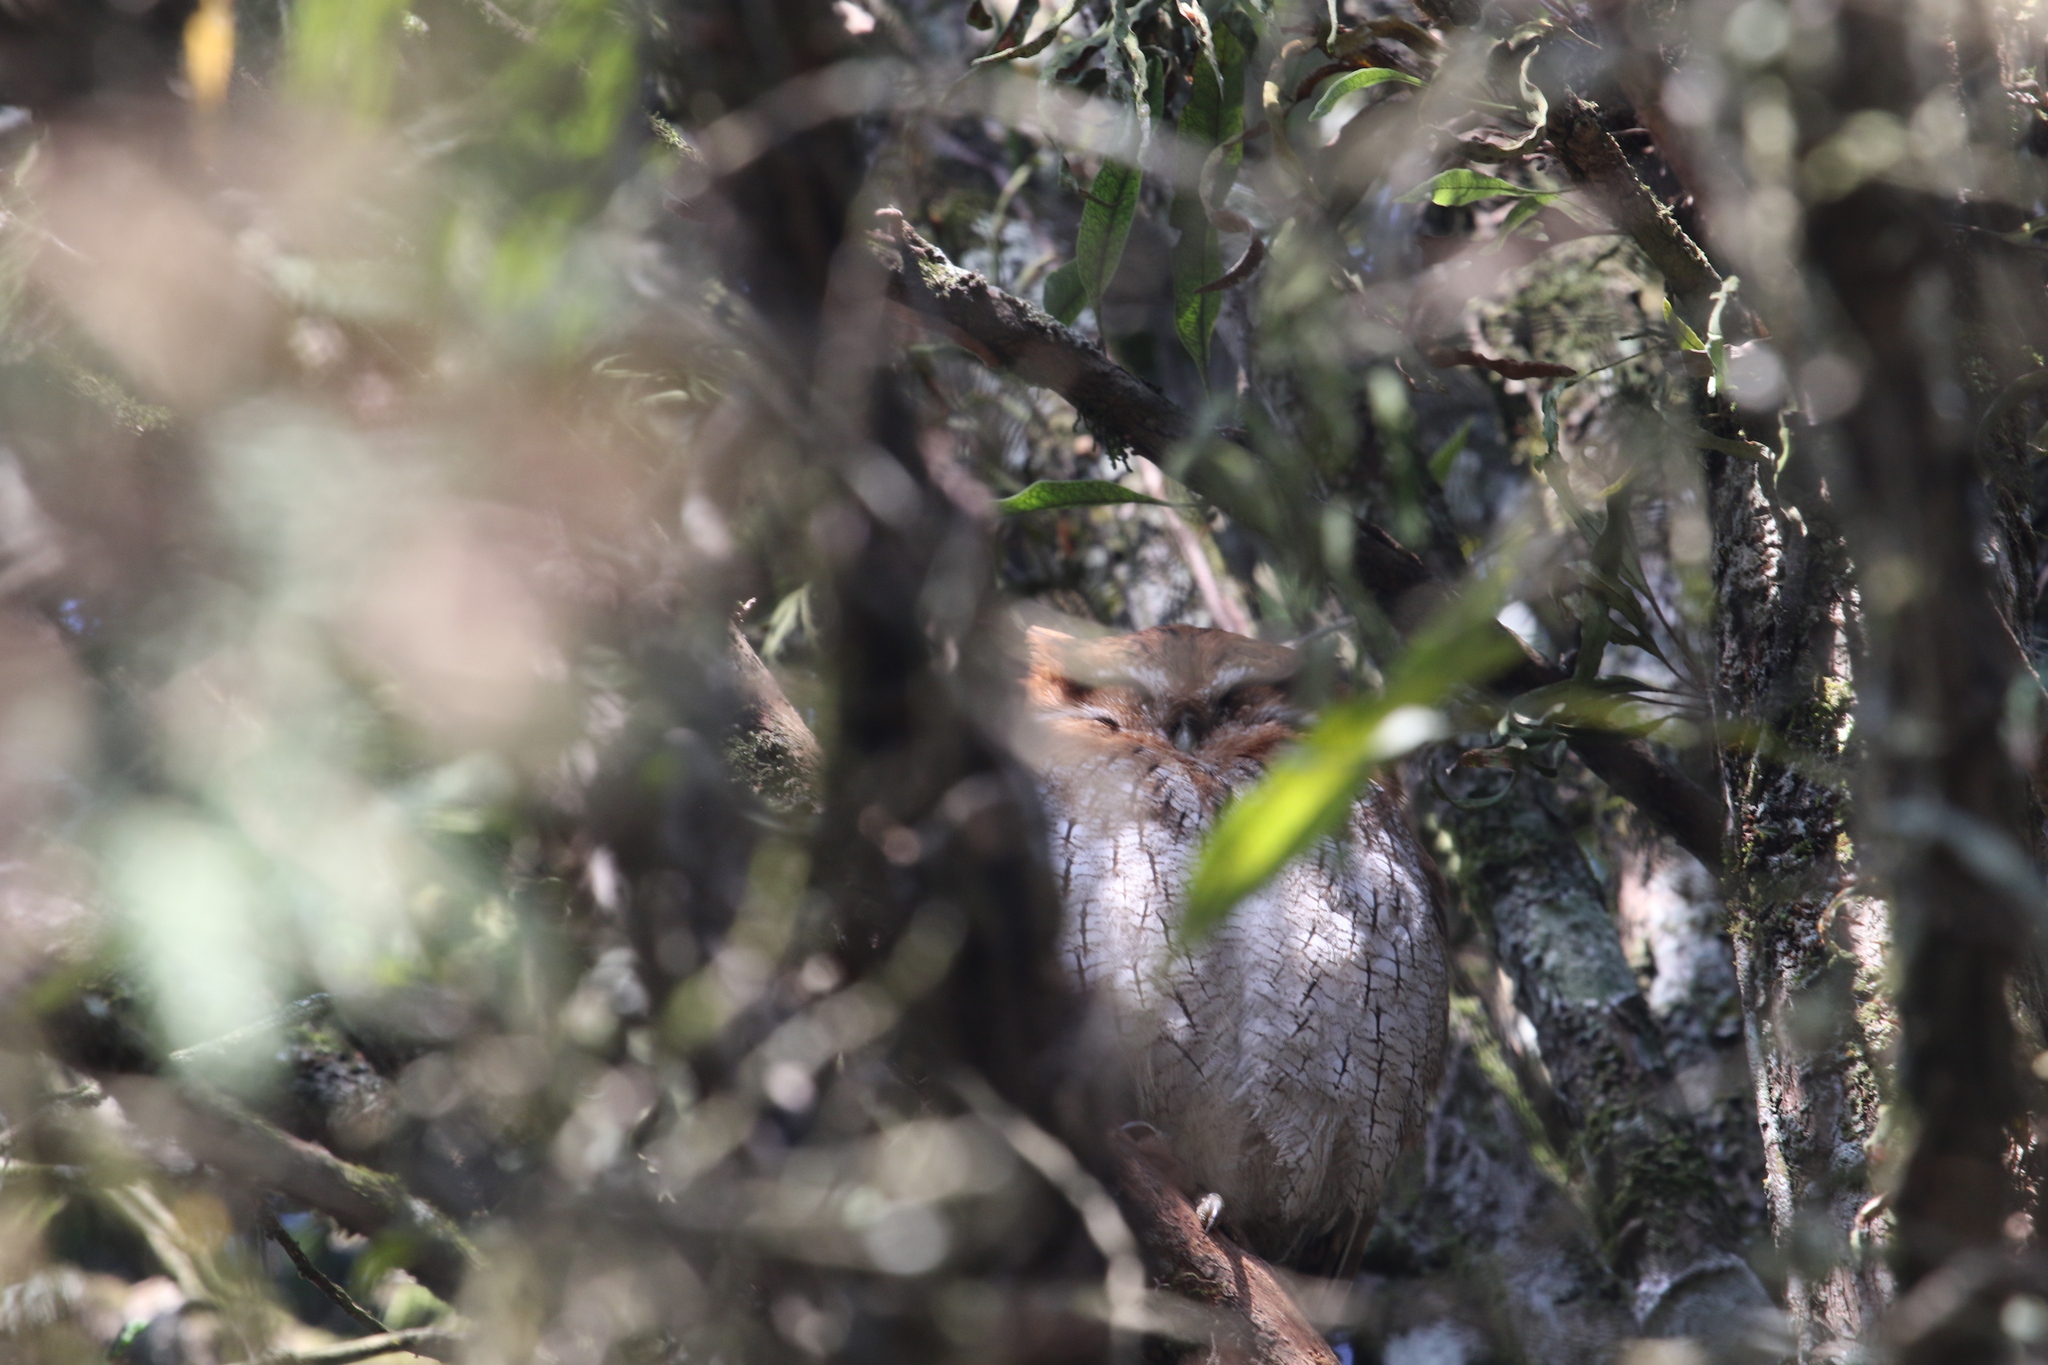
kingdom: Animalia
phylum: Chordata
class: Aves
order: Strigiformes
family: Strigidae
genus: Megascops
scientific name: Megascops choliba
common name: Tropical screech-owl
